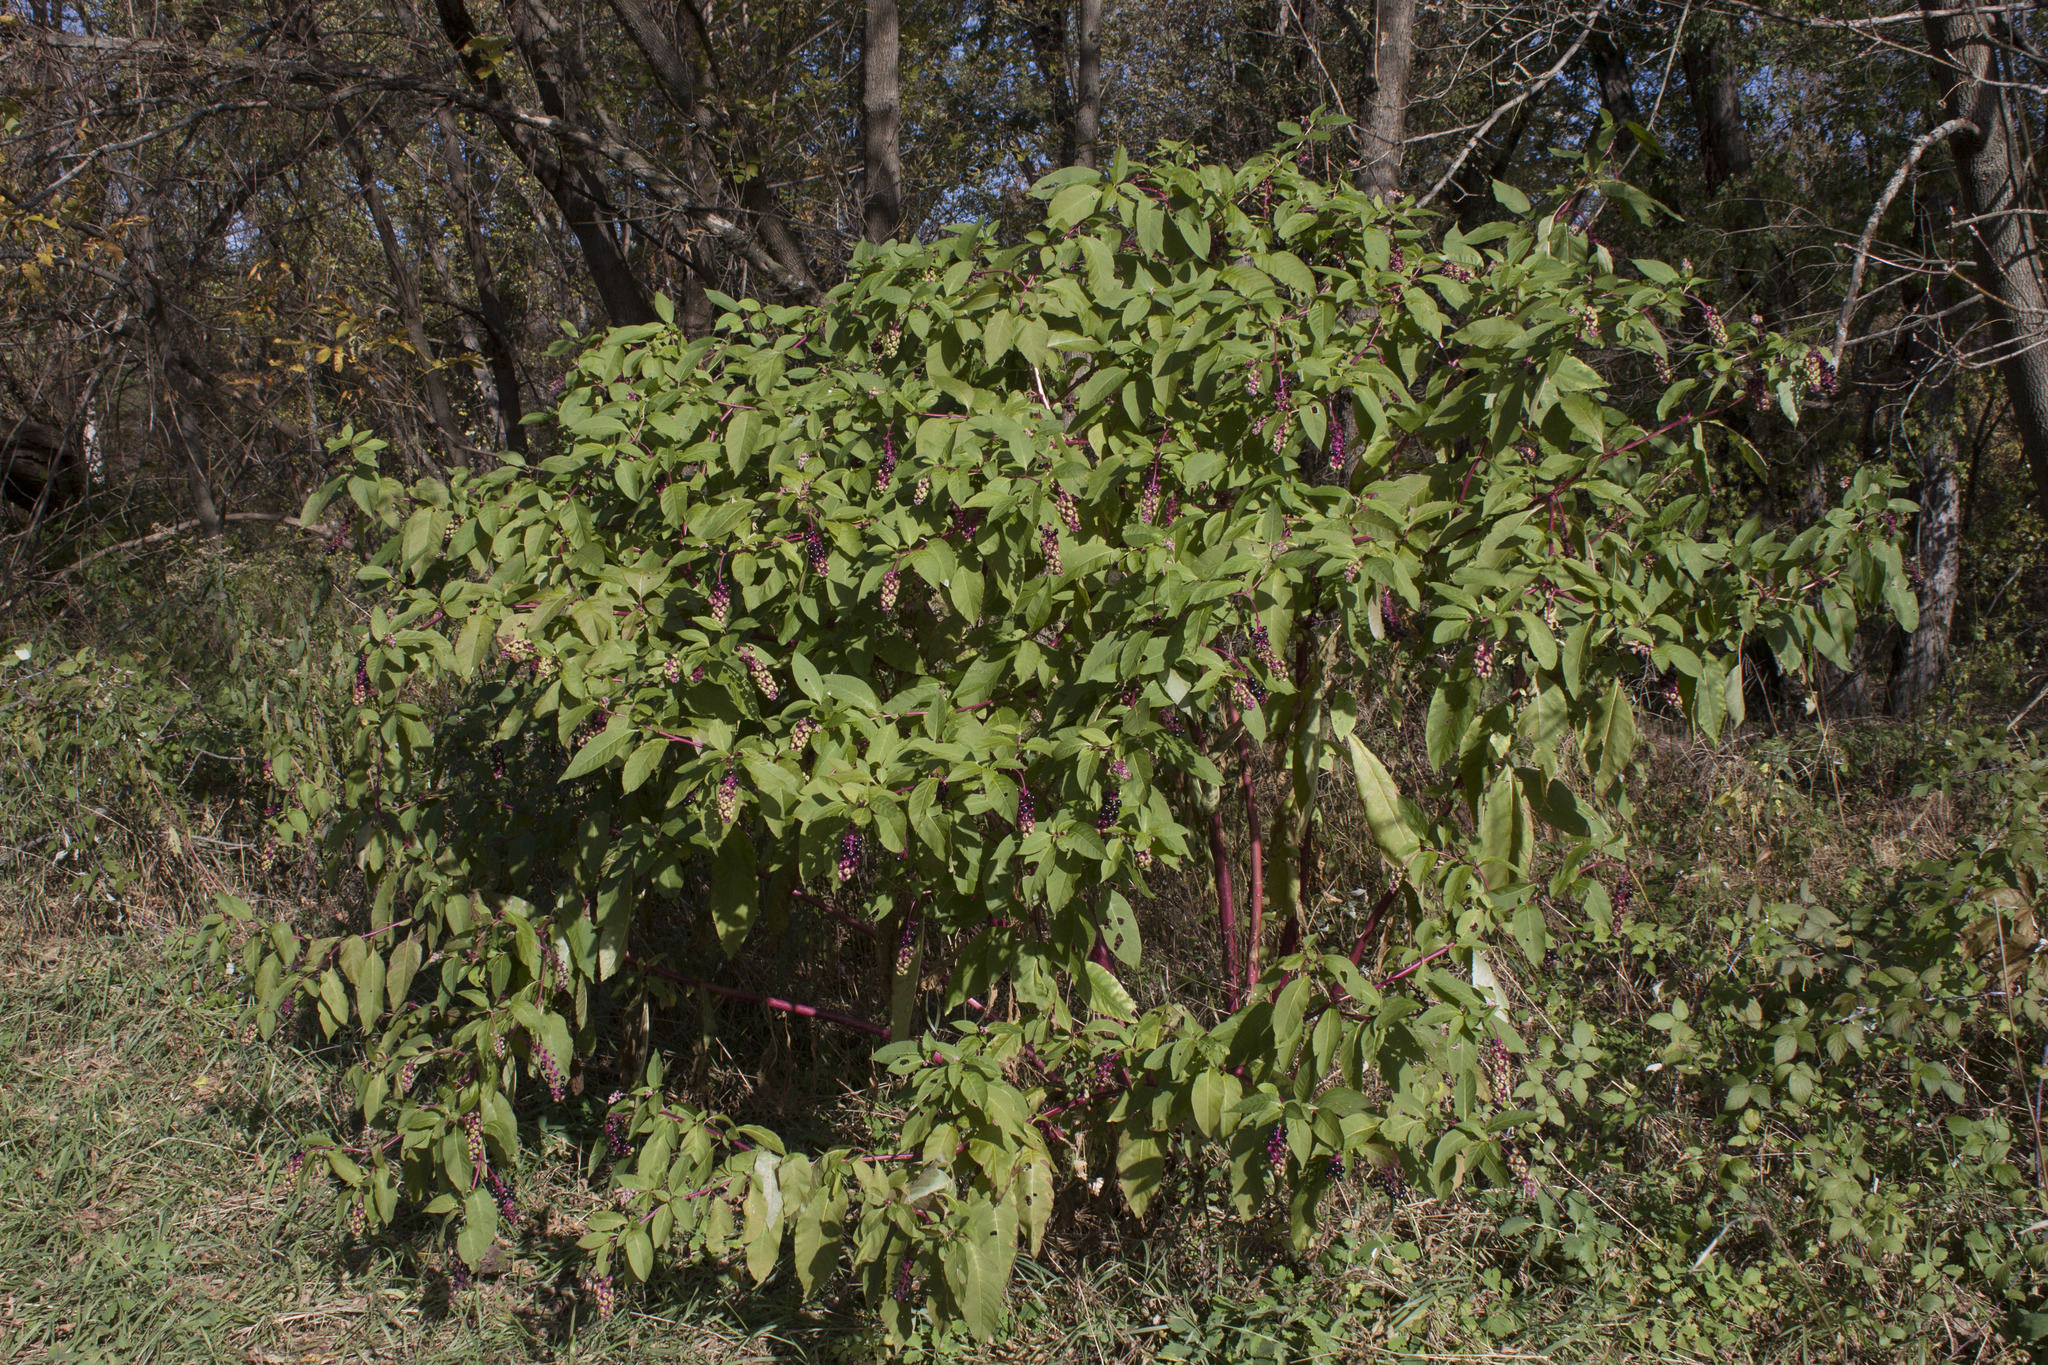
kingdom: Plantae
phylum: Tracheophyta
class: Magnoliopsida
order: Caryophyllales
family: Phytolaccaceae
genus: Phytolacca
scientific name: Phytolacca americana
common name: American pokeweed
